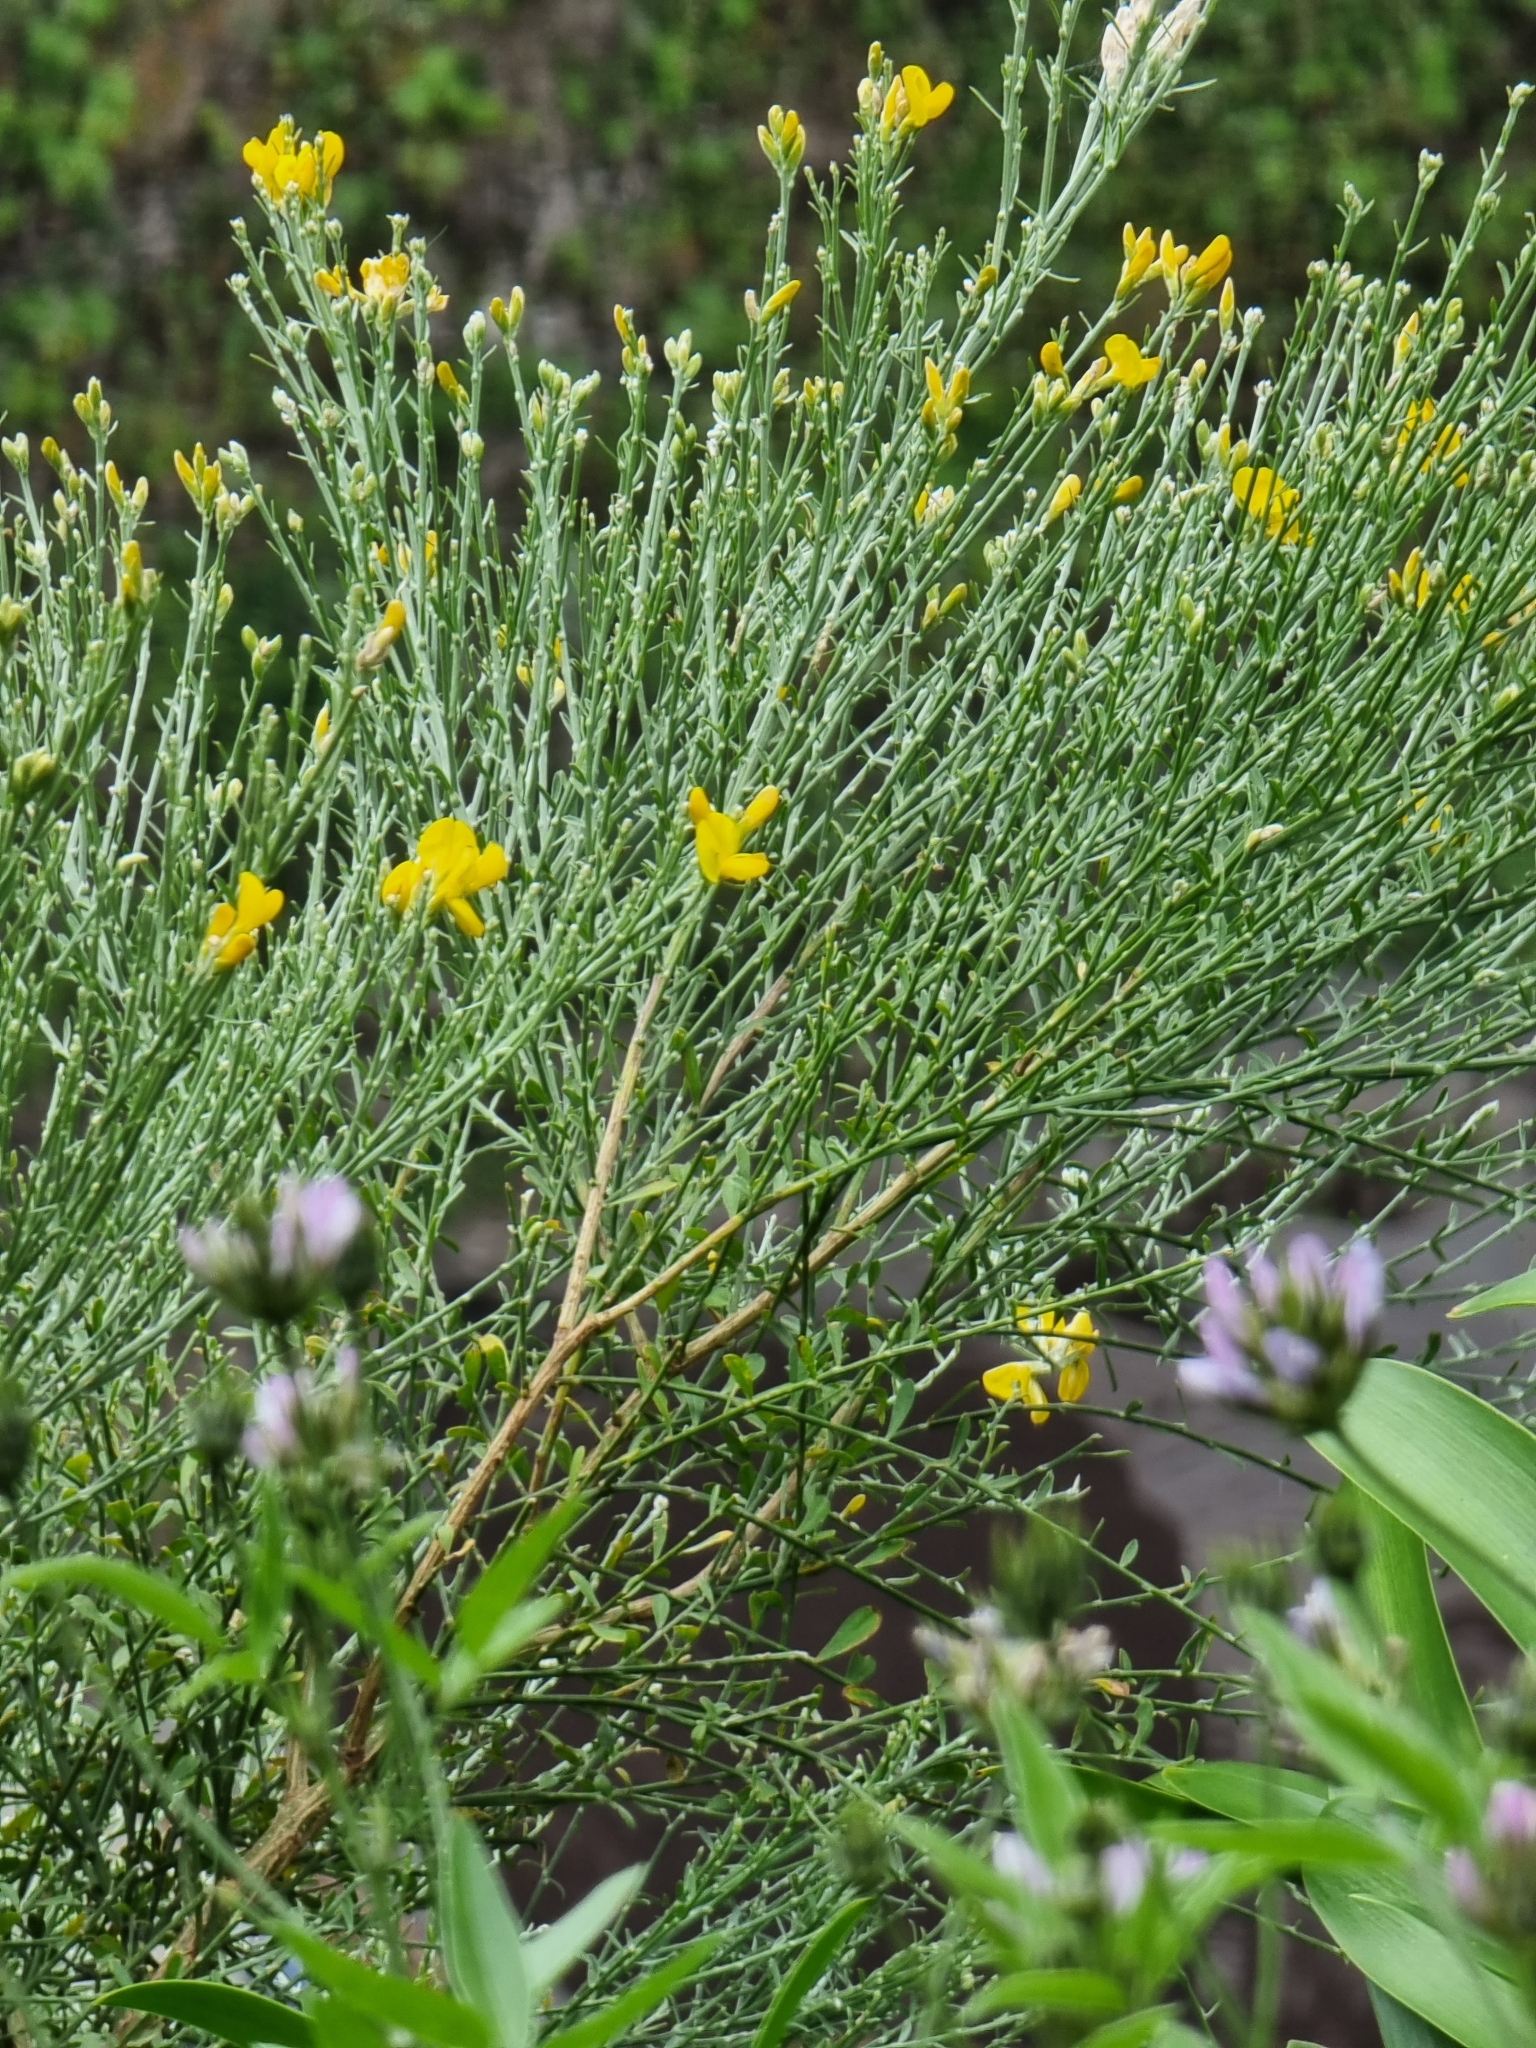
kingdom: Plantae
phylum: Tracheophyta
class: Magnoliopsida
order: Fabales
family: Fabaceae
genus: Genista
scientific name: Genista tenera
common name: Madeira broom
